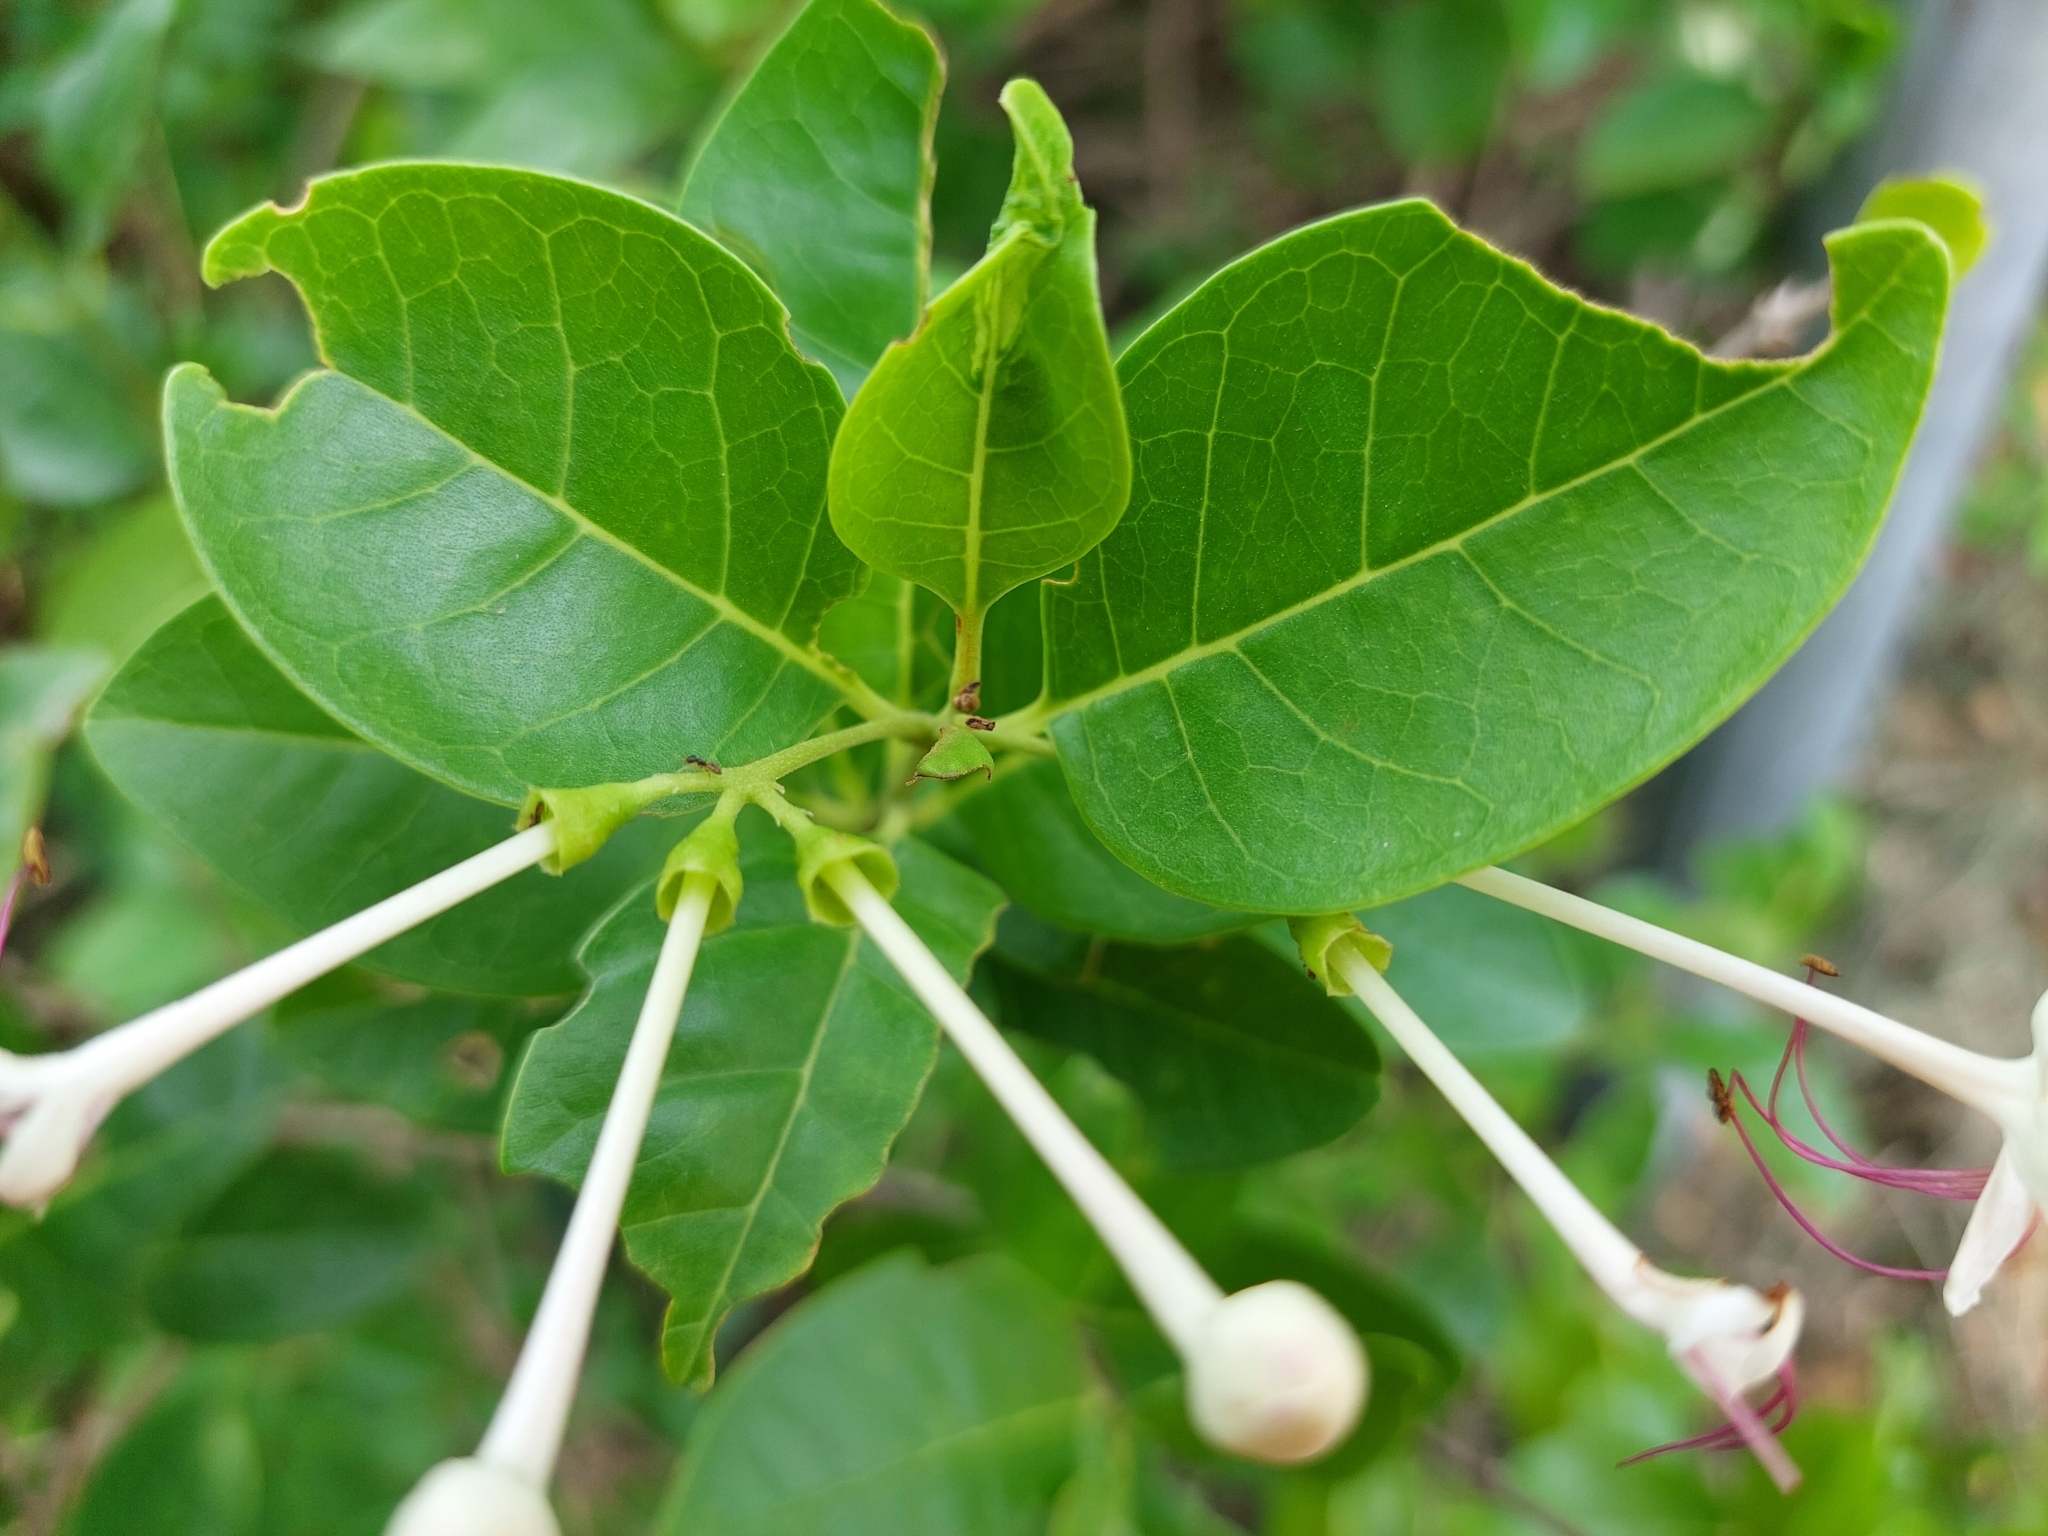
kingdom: Plantae
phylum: Tracheophyta
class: Magnoliopsida
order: Lamiales
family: Lamiaceae
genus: Volkameria
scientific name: Volkameria inermis
